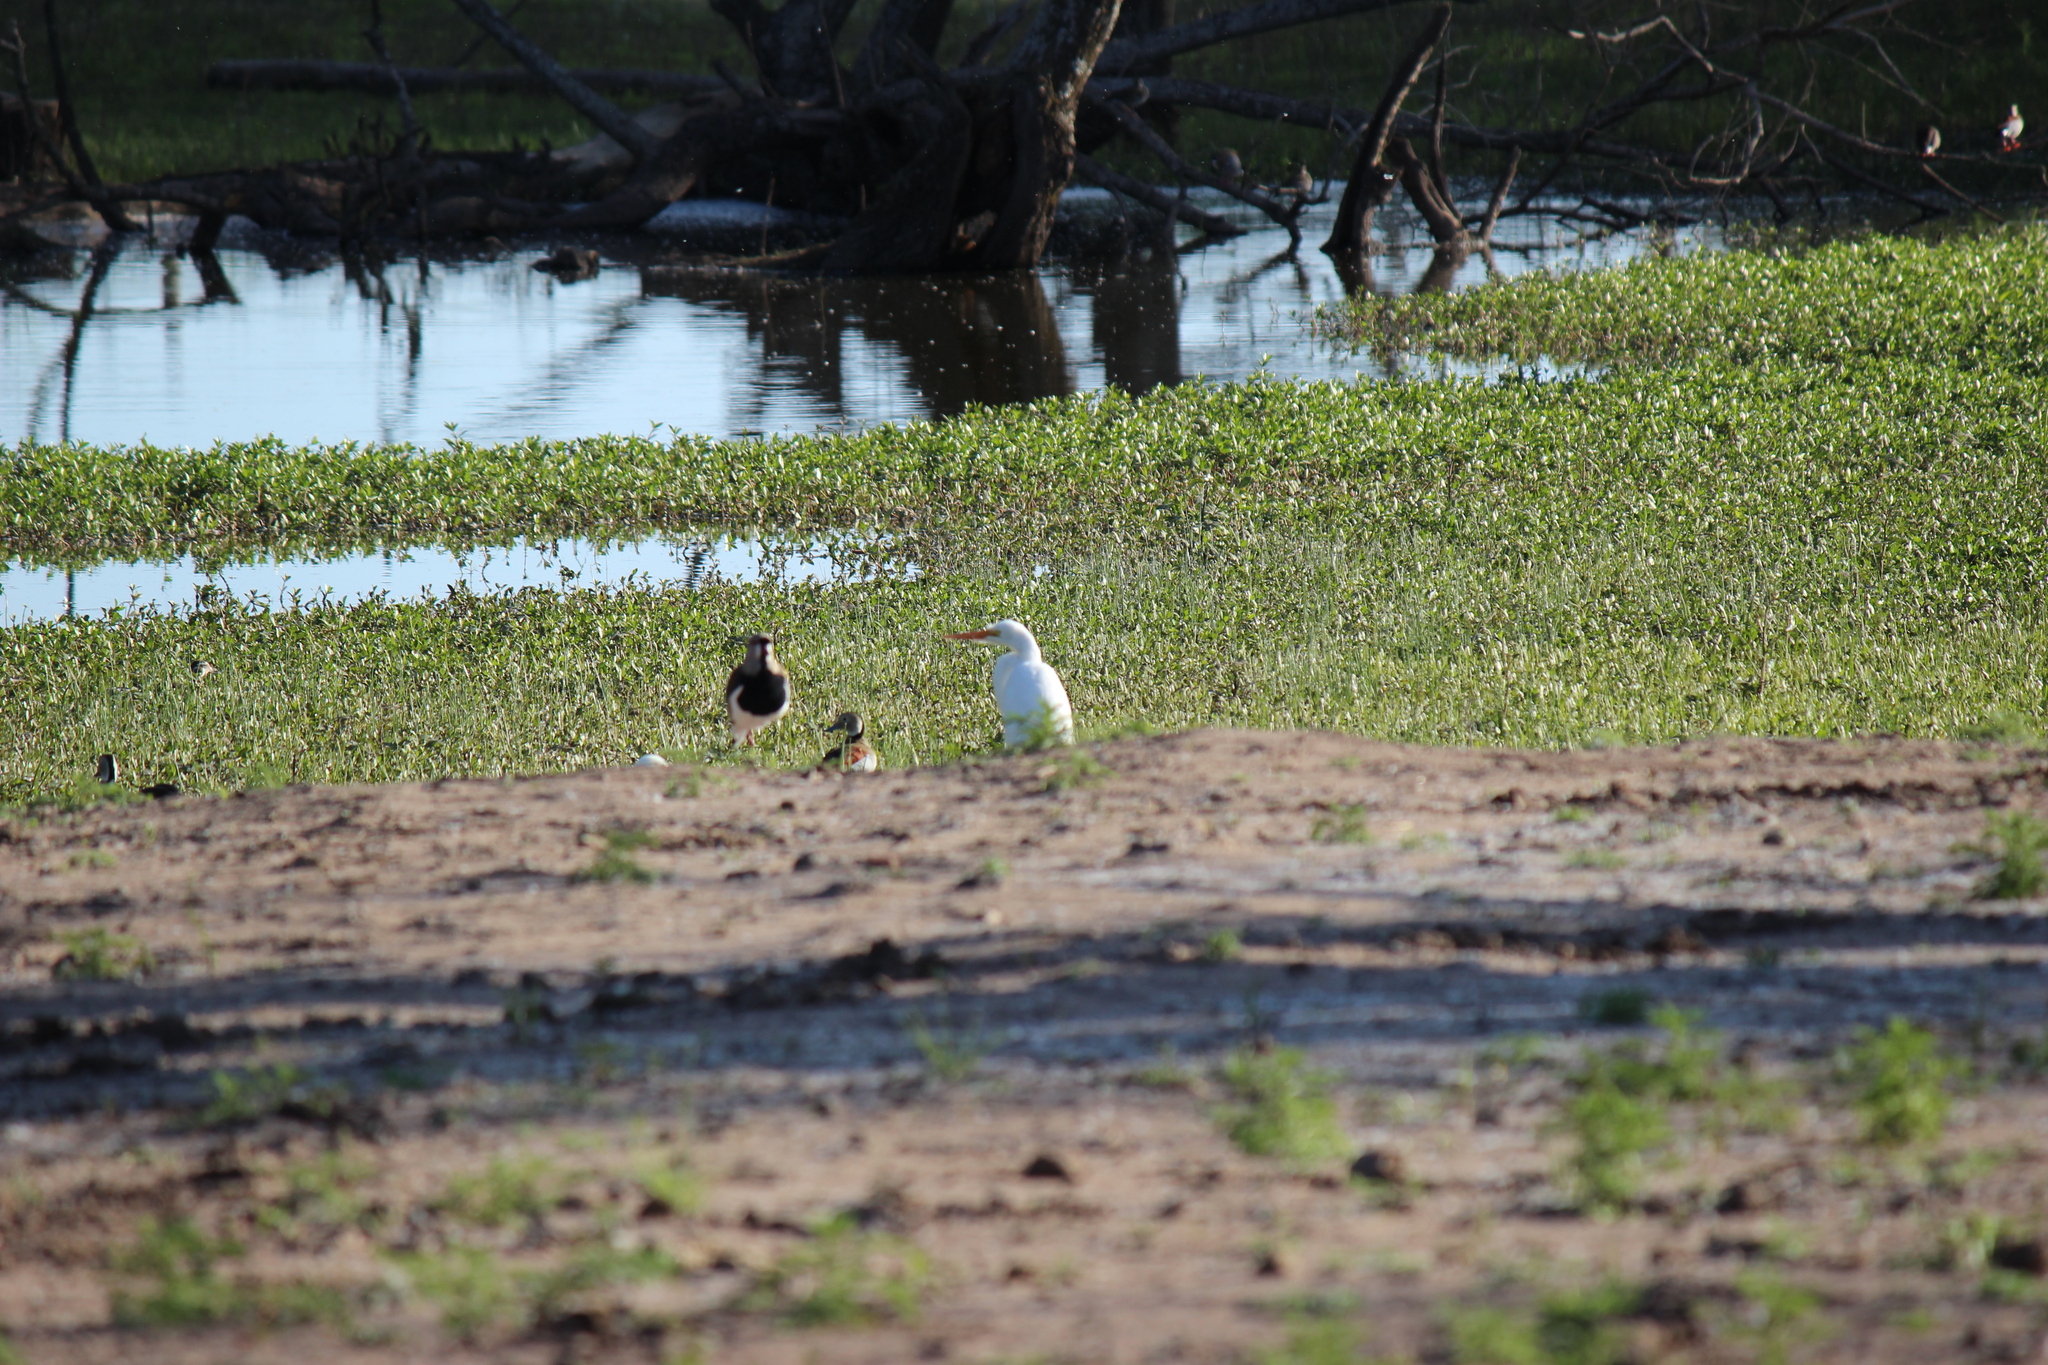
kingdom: Animalia
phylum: Chordata
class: Aves
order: Pelecaniformes
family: Ardeidae
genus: Ardea
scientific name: Ardea alba
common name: Great egret
